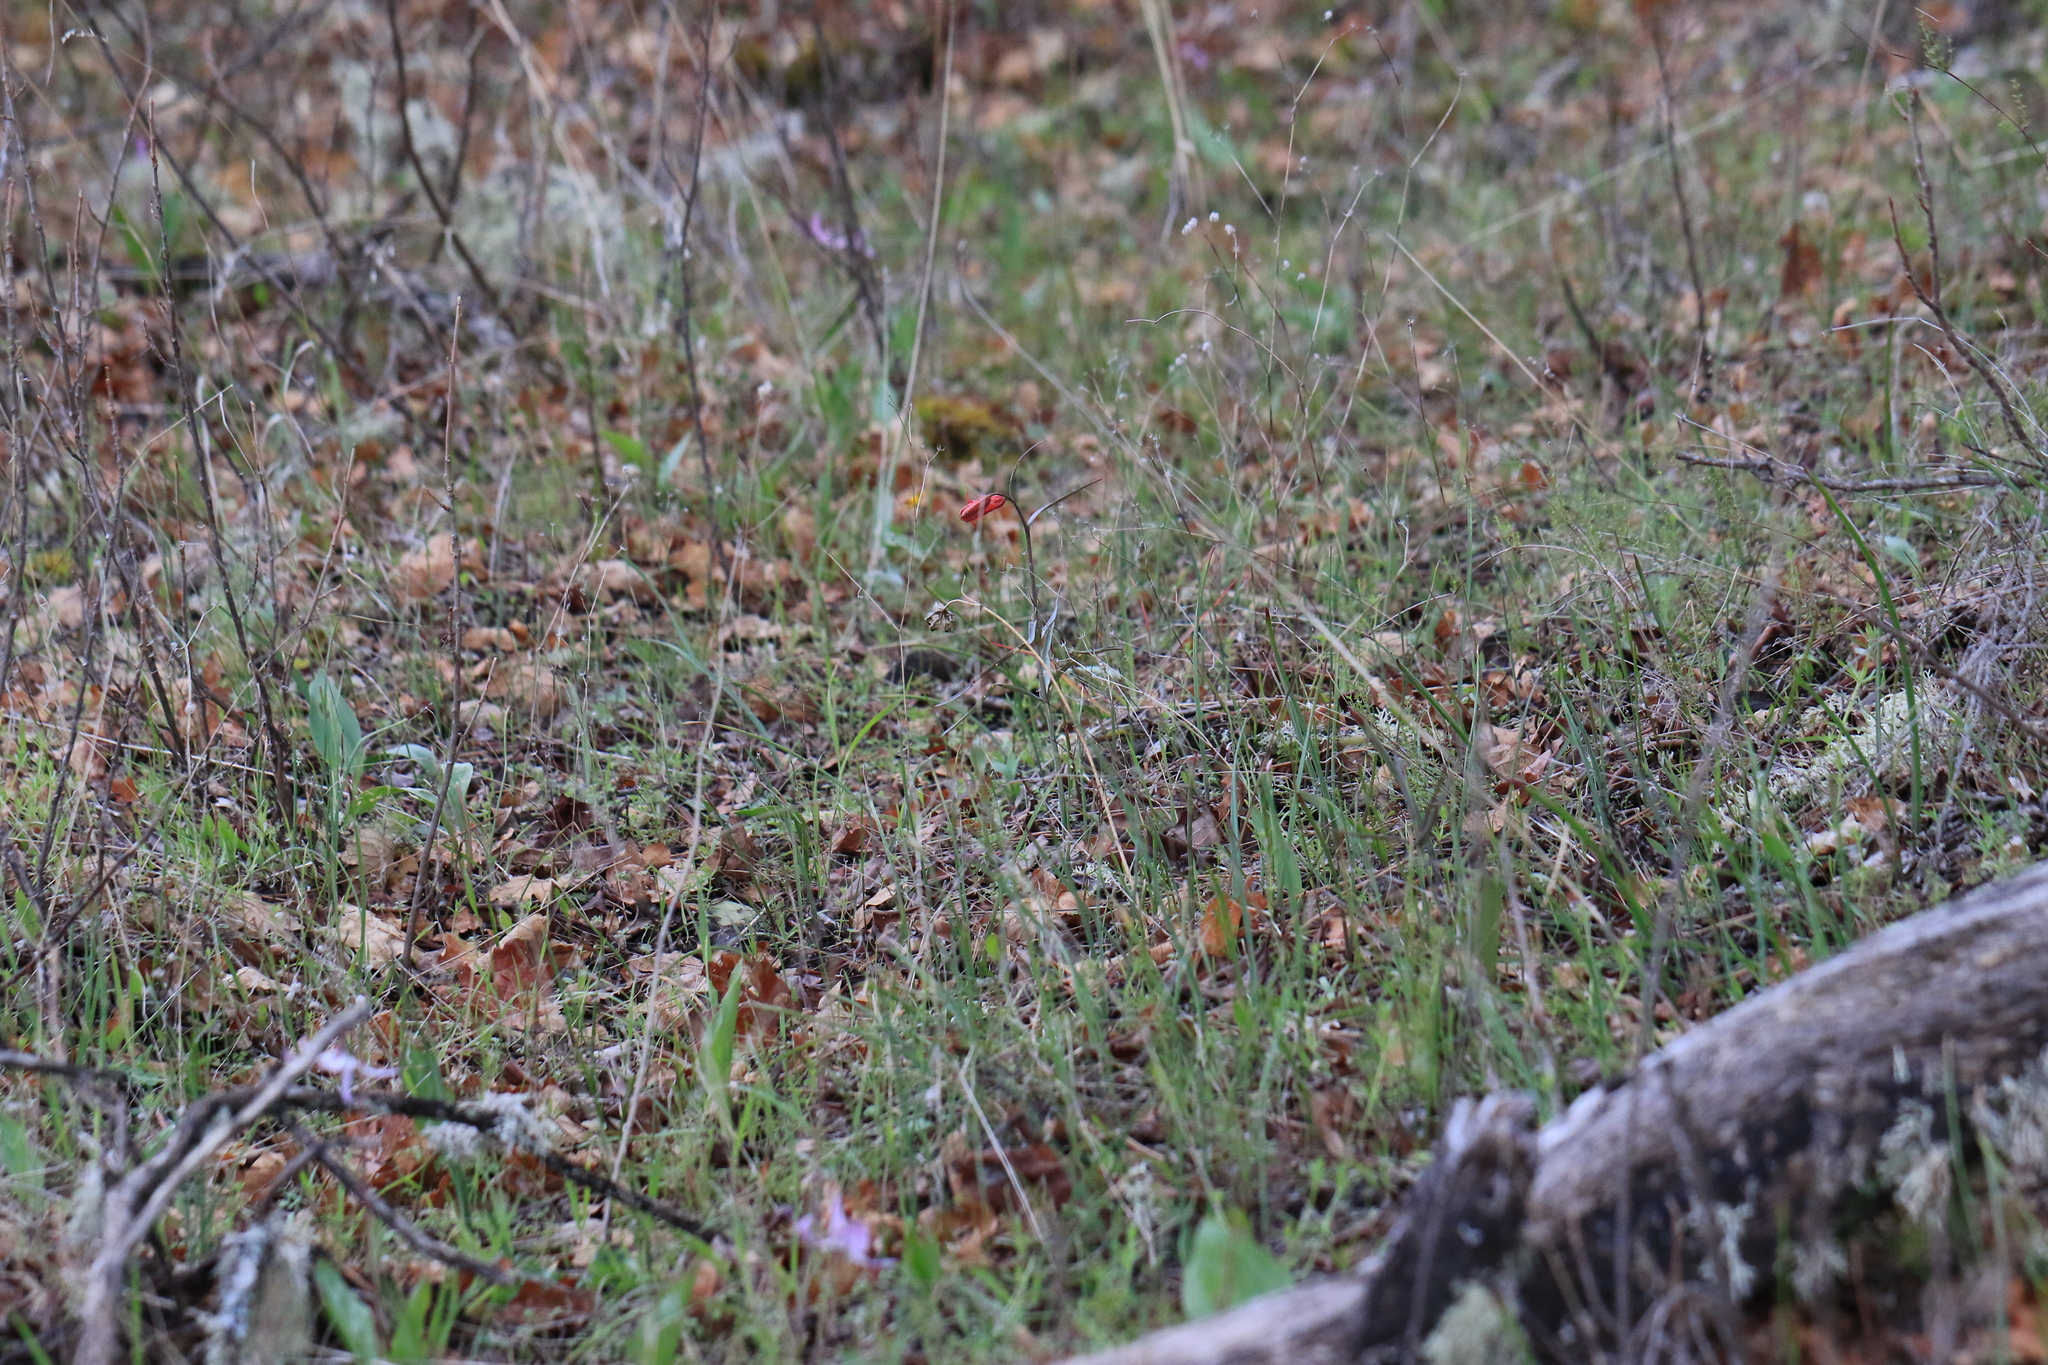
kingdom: Plantae
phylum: Tracheophyta
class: Liliopsida
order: Liliales
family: Liliaceae
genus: Fritillaria
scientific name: Fritillaria recurva
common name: Scarlet fritillary
